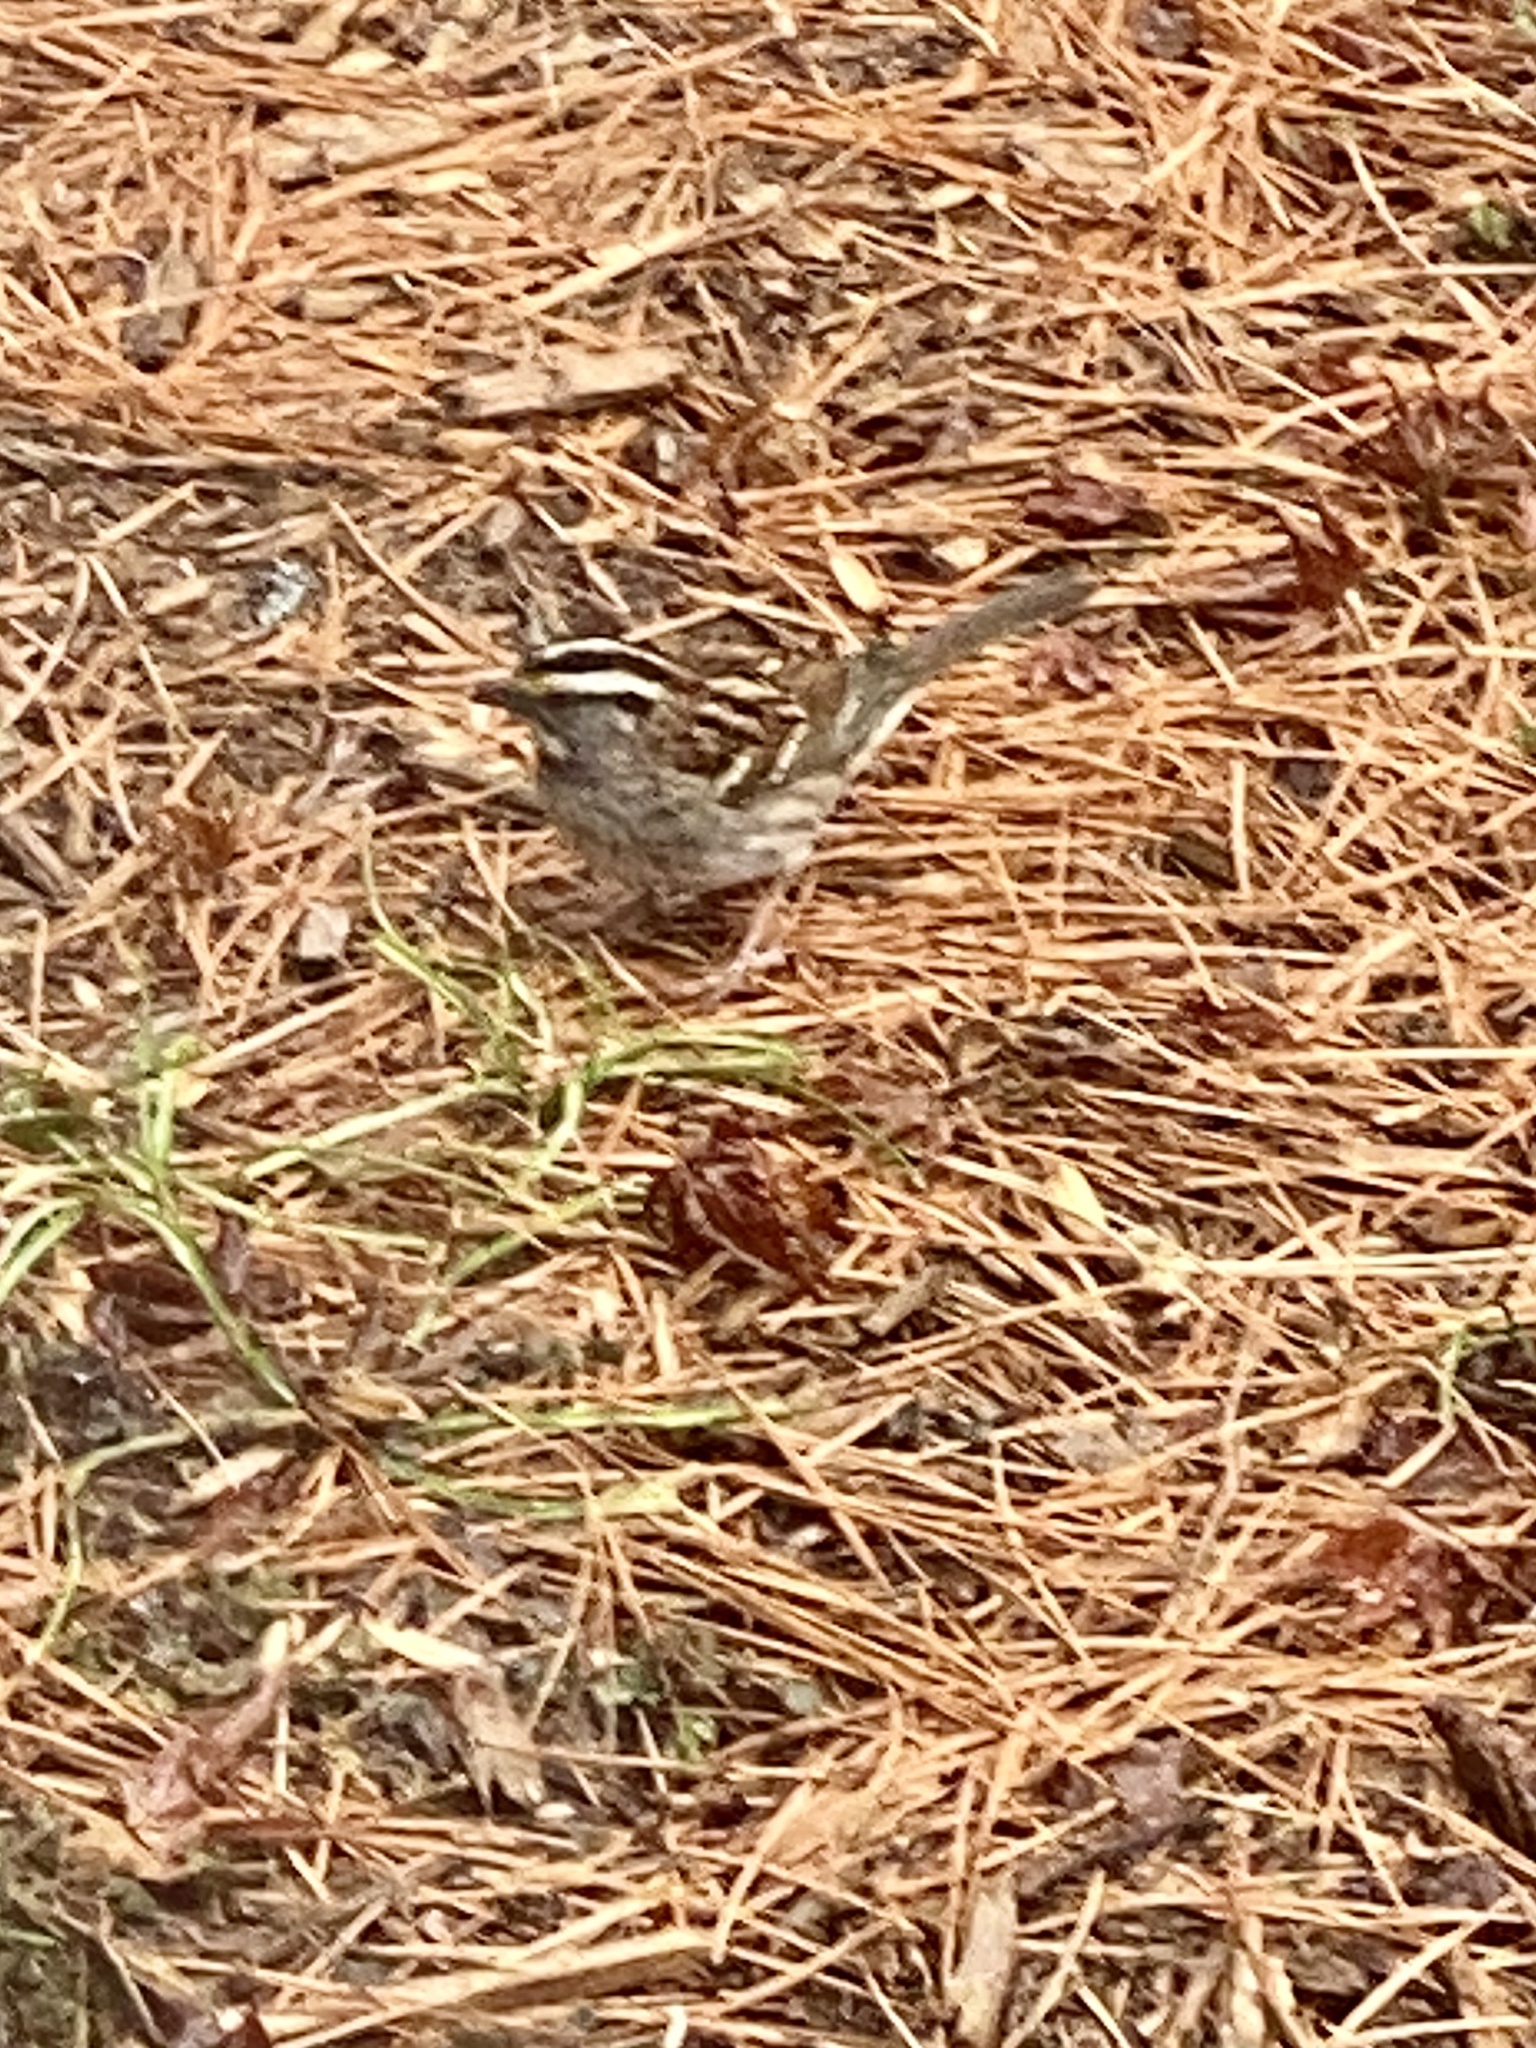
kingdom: Animalia
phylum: Chordata
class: Aves
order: Passeriformes
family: Passerellidae
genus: Zonotrichia
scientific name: Zonotrichia albicollis
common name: White-throated sparrow
